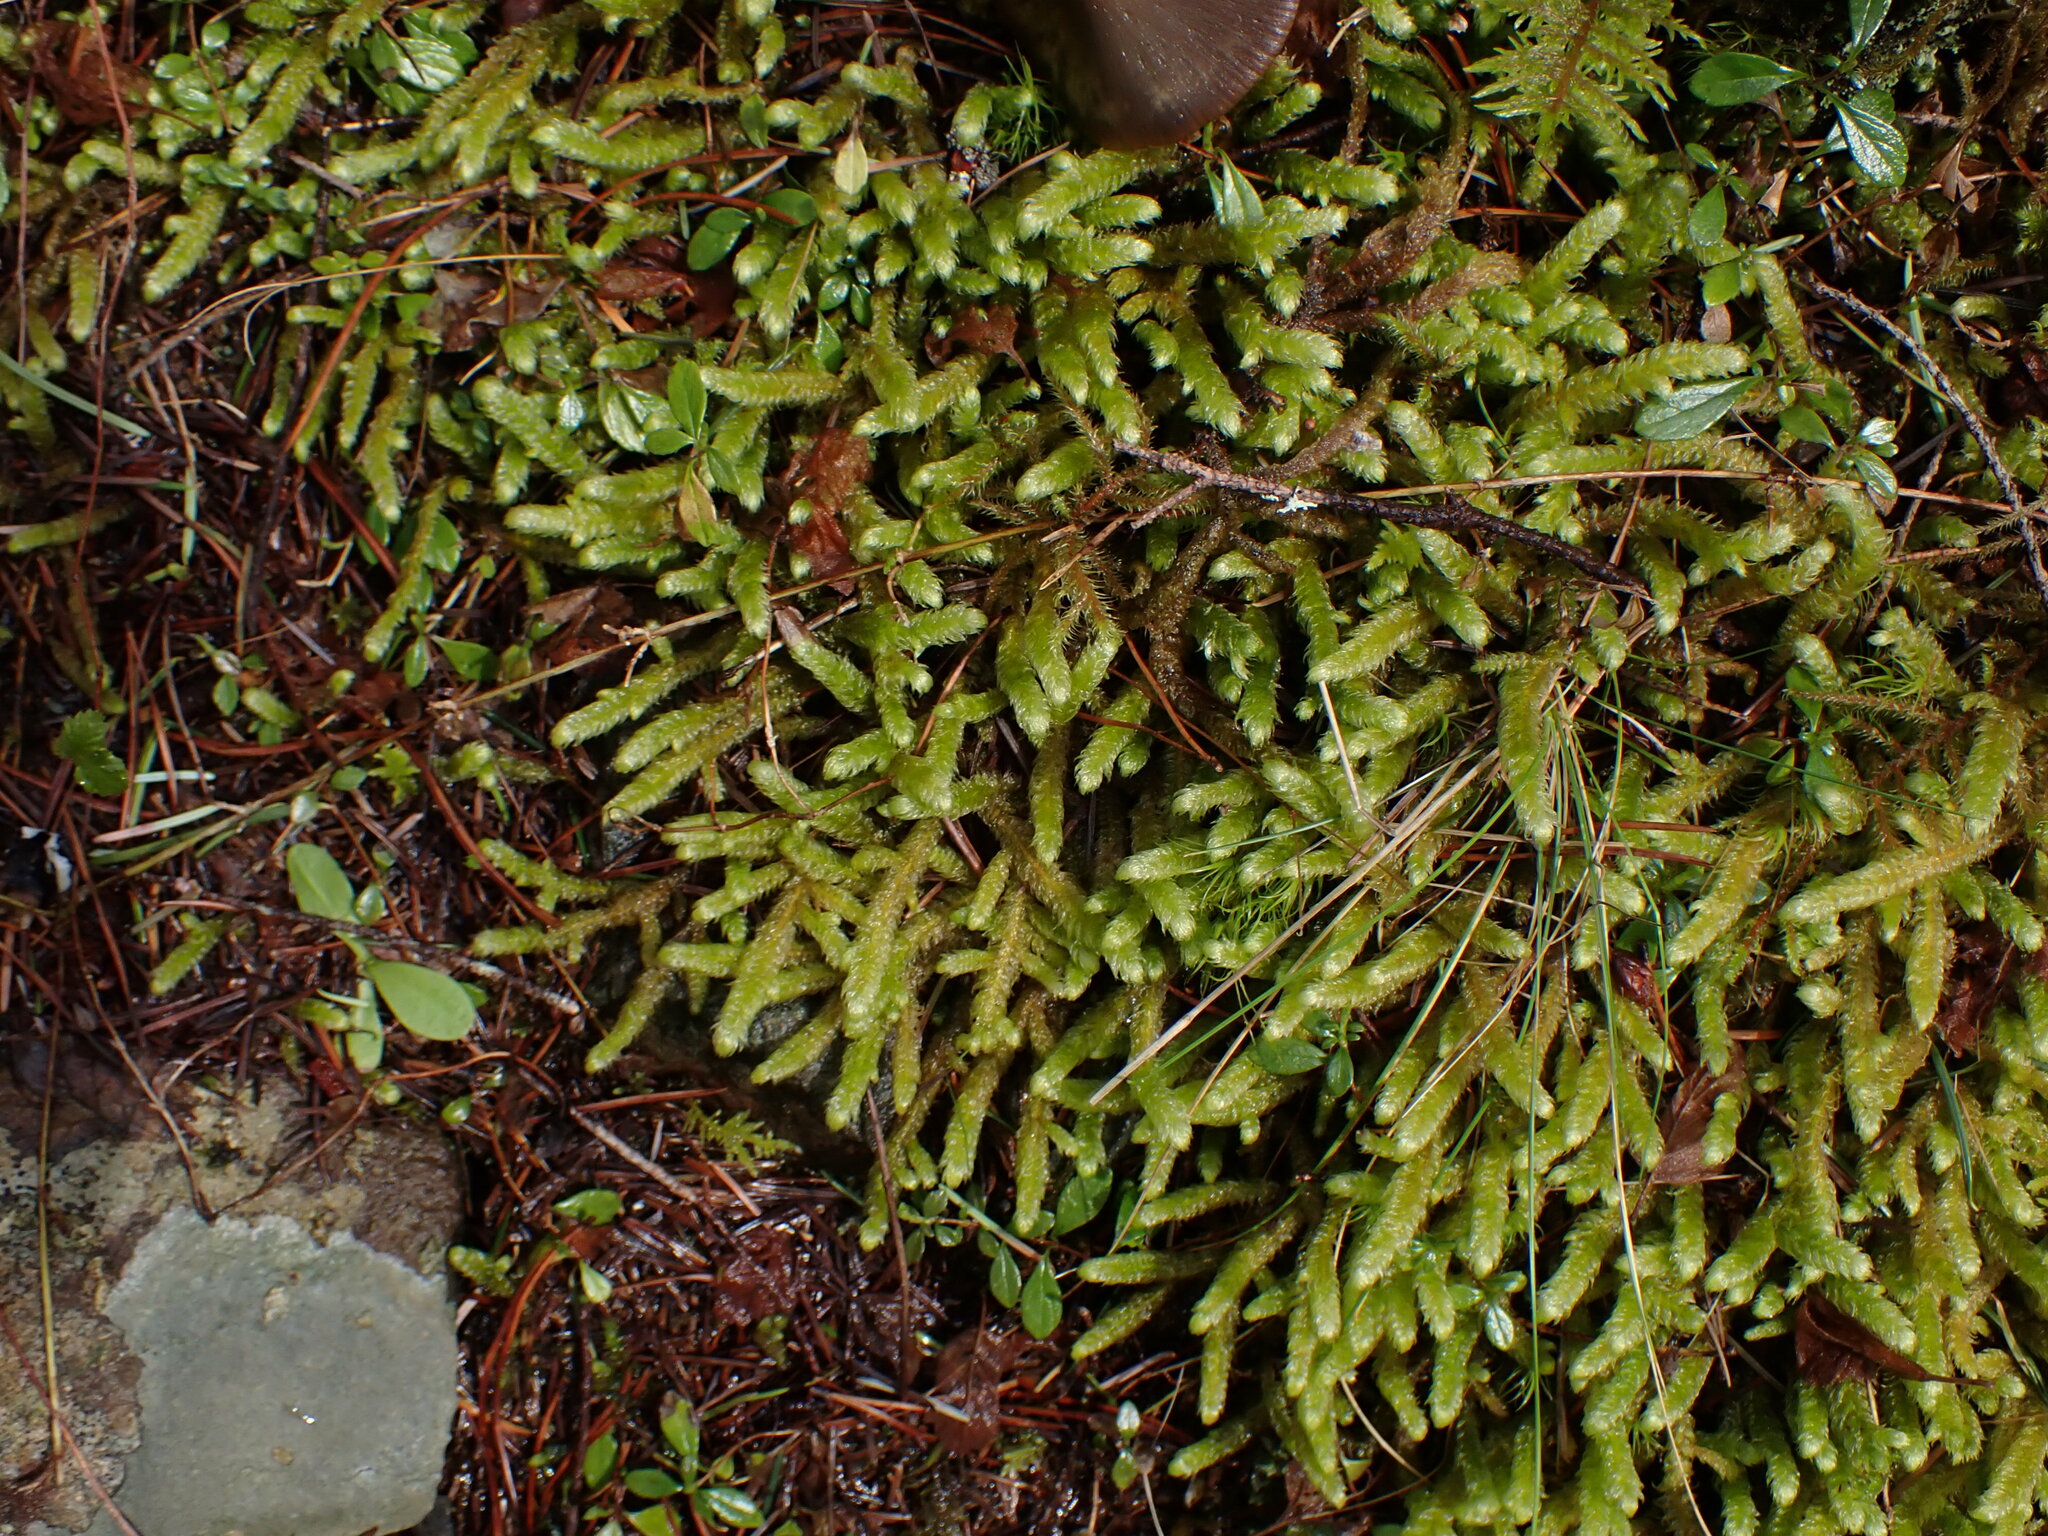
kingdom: Plantae
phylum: Bryophyta
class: Bryopsida
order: Hypnales
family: Hylocomiaceae
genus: Rhytidiopsis
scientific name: Rhytidiopsis robusta
